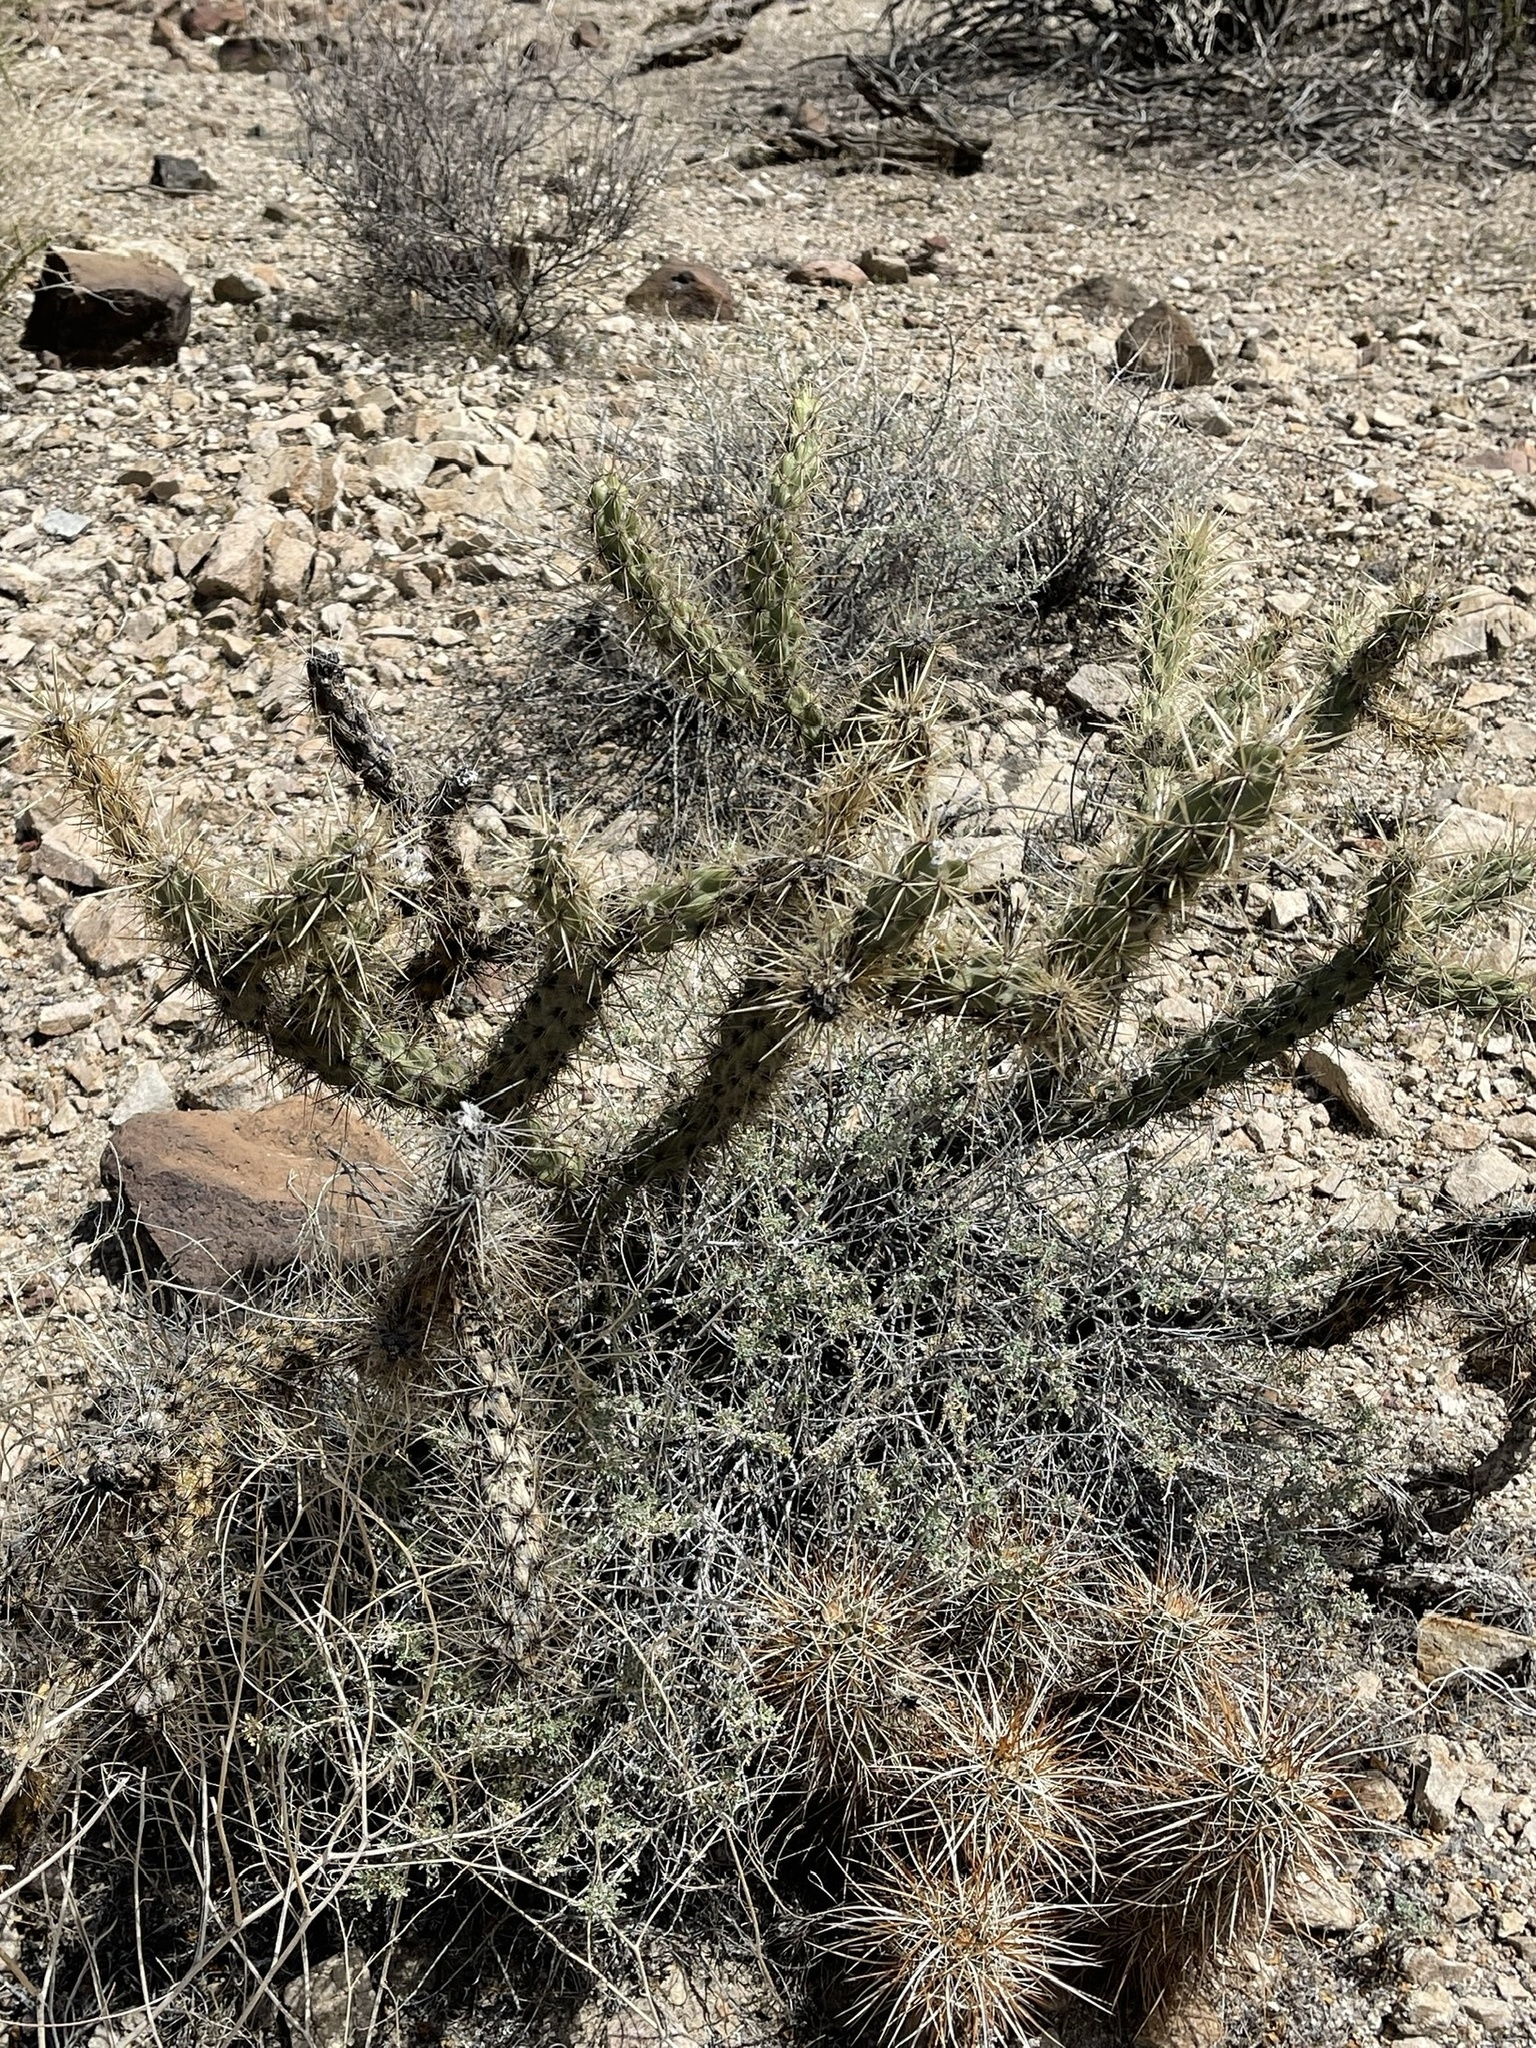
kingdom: Plantae
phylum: Tracheophyta
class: Magnoliopsida
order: Caryophyllales
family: Cactaceae
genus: Cylindropuntia
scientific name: Cylindropuntia acanthocarpa
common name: Buckhorn cholla
